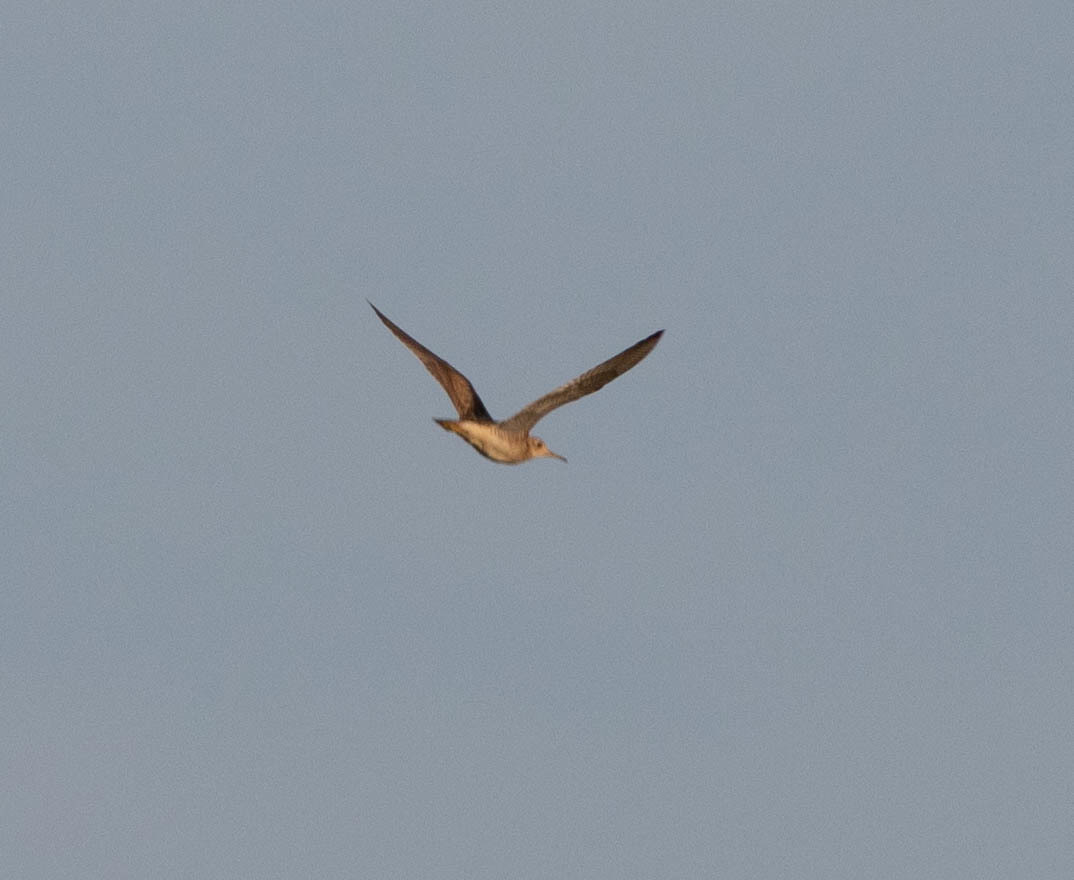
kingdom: Animalia
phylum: Chordata
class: Aves
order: Charadriiformes
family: Scolopacidae
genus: Bartramia
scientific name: Bartramia longicauda
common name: Upland sandpiper
